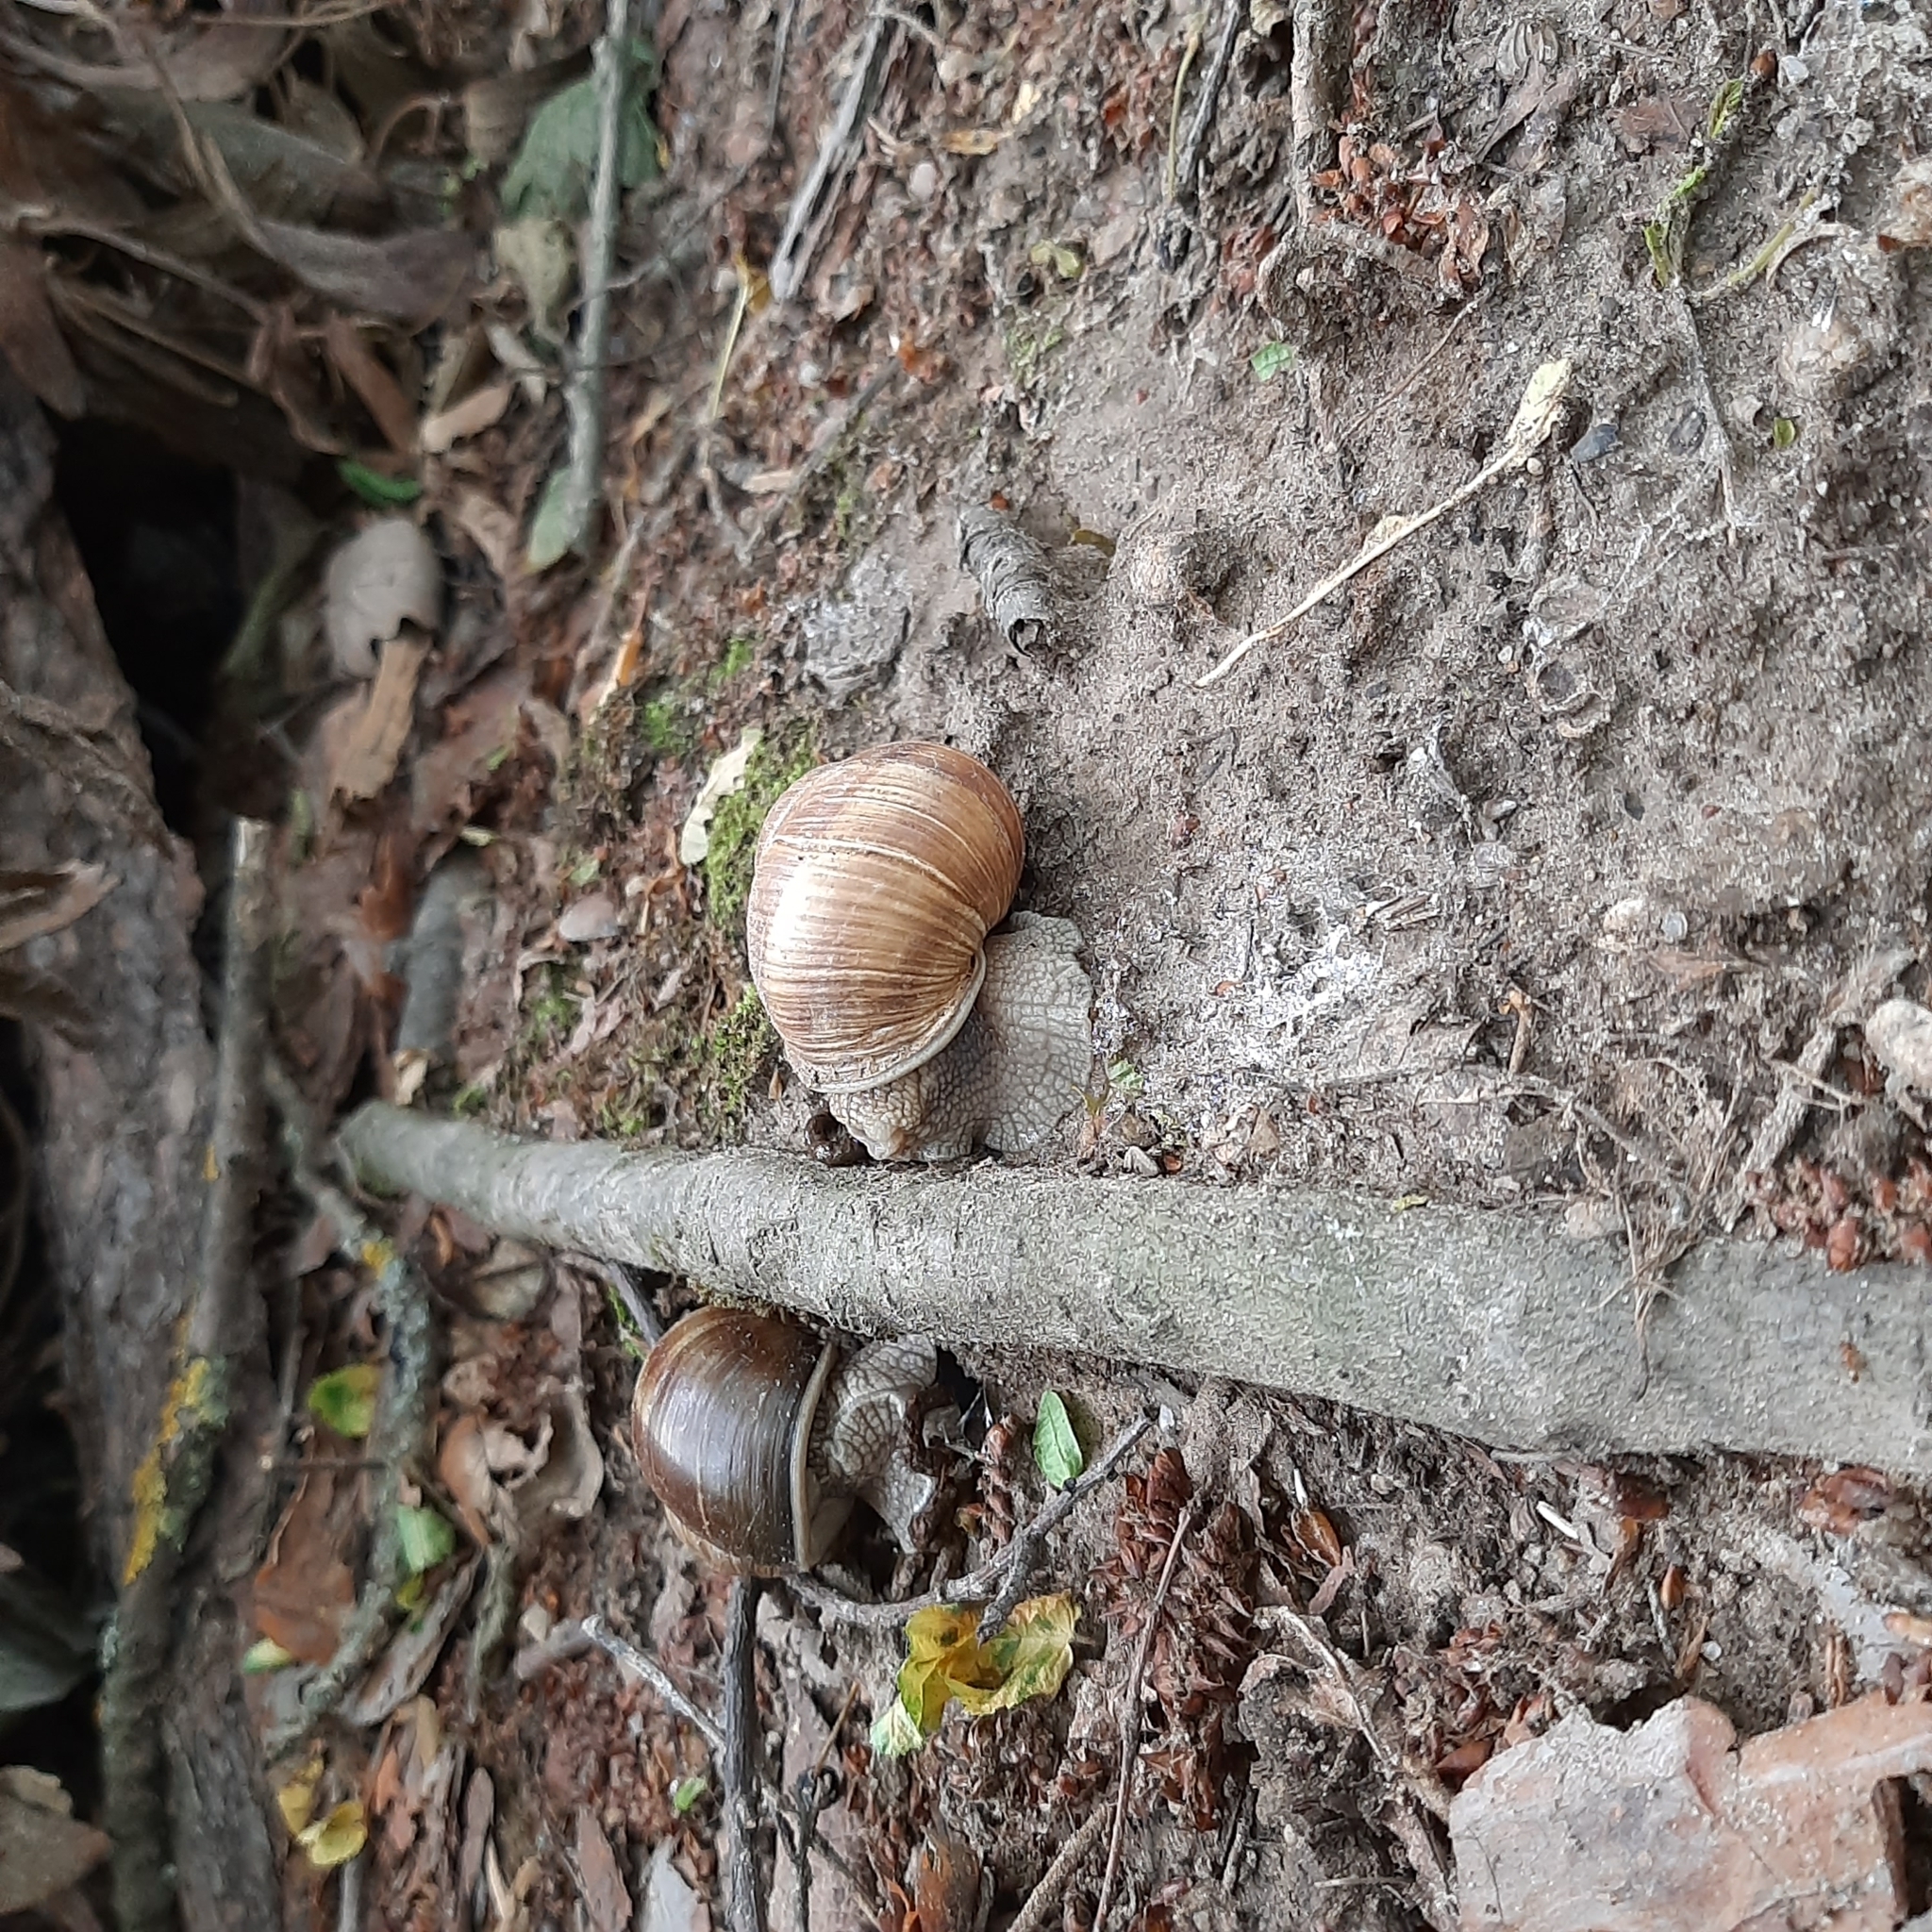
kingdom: Animalia
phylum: Mollusca
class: Gastropoda
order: Stylommatophora
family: Helicidae
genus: Helix
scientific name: Helix pomatia
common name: Roman snail
